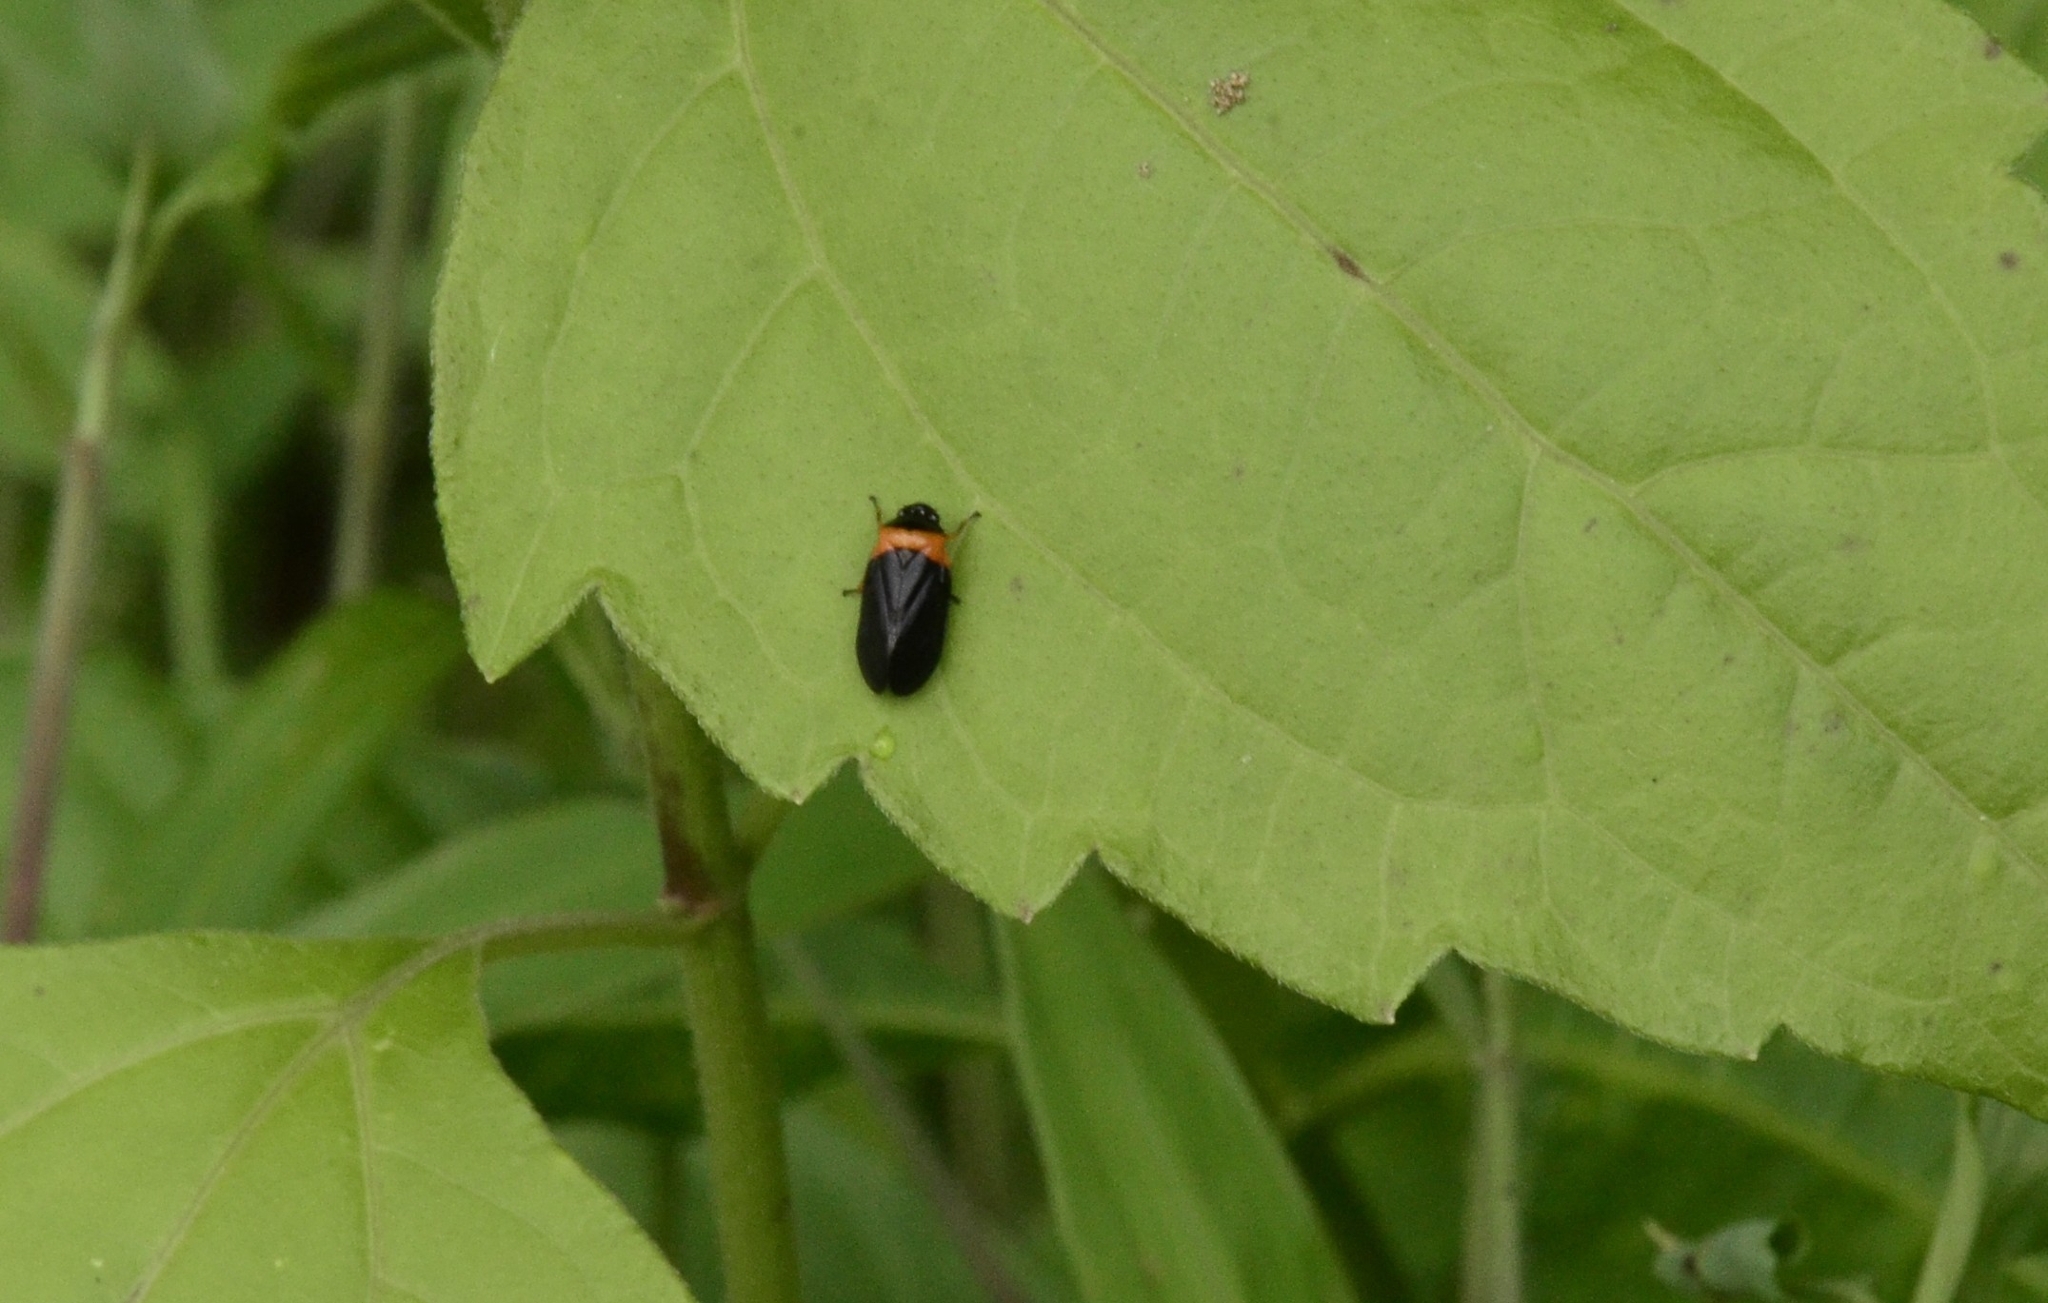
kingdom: Animalia
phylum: Arthropoda
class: Insecta
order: Hemiptera
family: Cercopidae
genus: Phymatostetha
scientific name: Phymatostetha deschampsi
